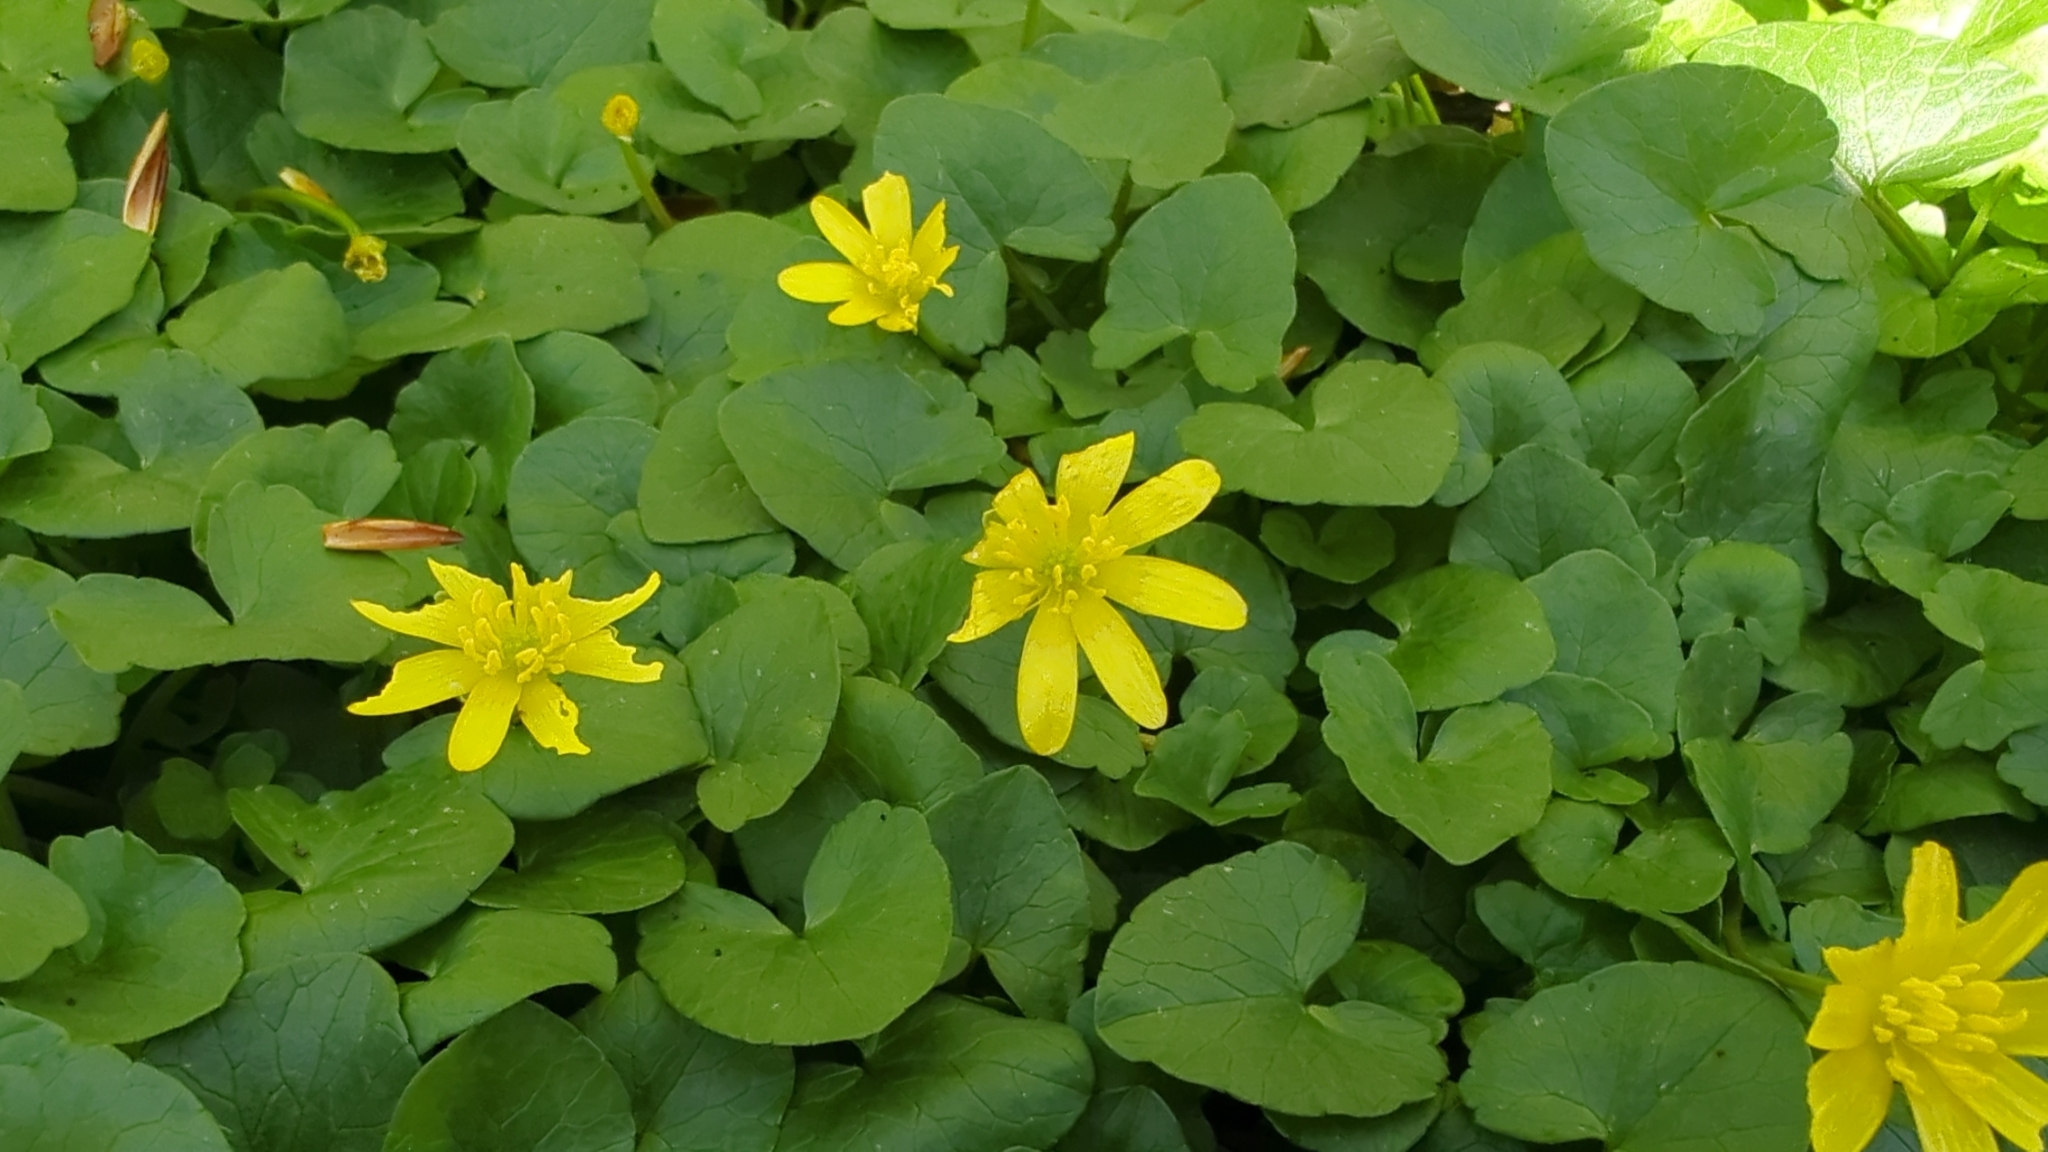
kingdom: Plantae
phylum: Tracheophyta
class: Magnoliopsida
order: Ranunculales
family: Ranunculaceae
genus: Ficaria
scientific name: Ficaria verna
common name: Lesser celandine
